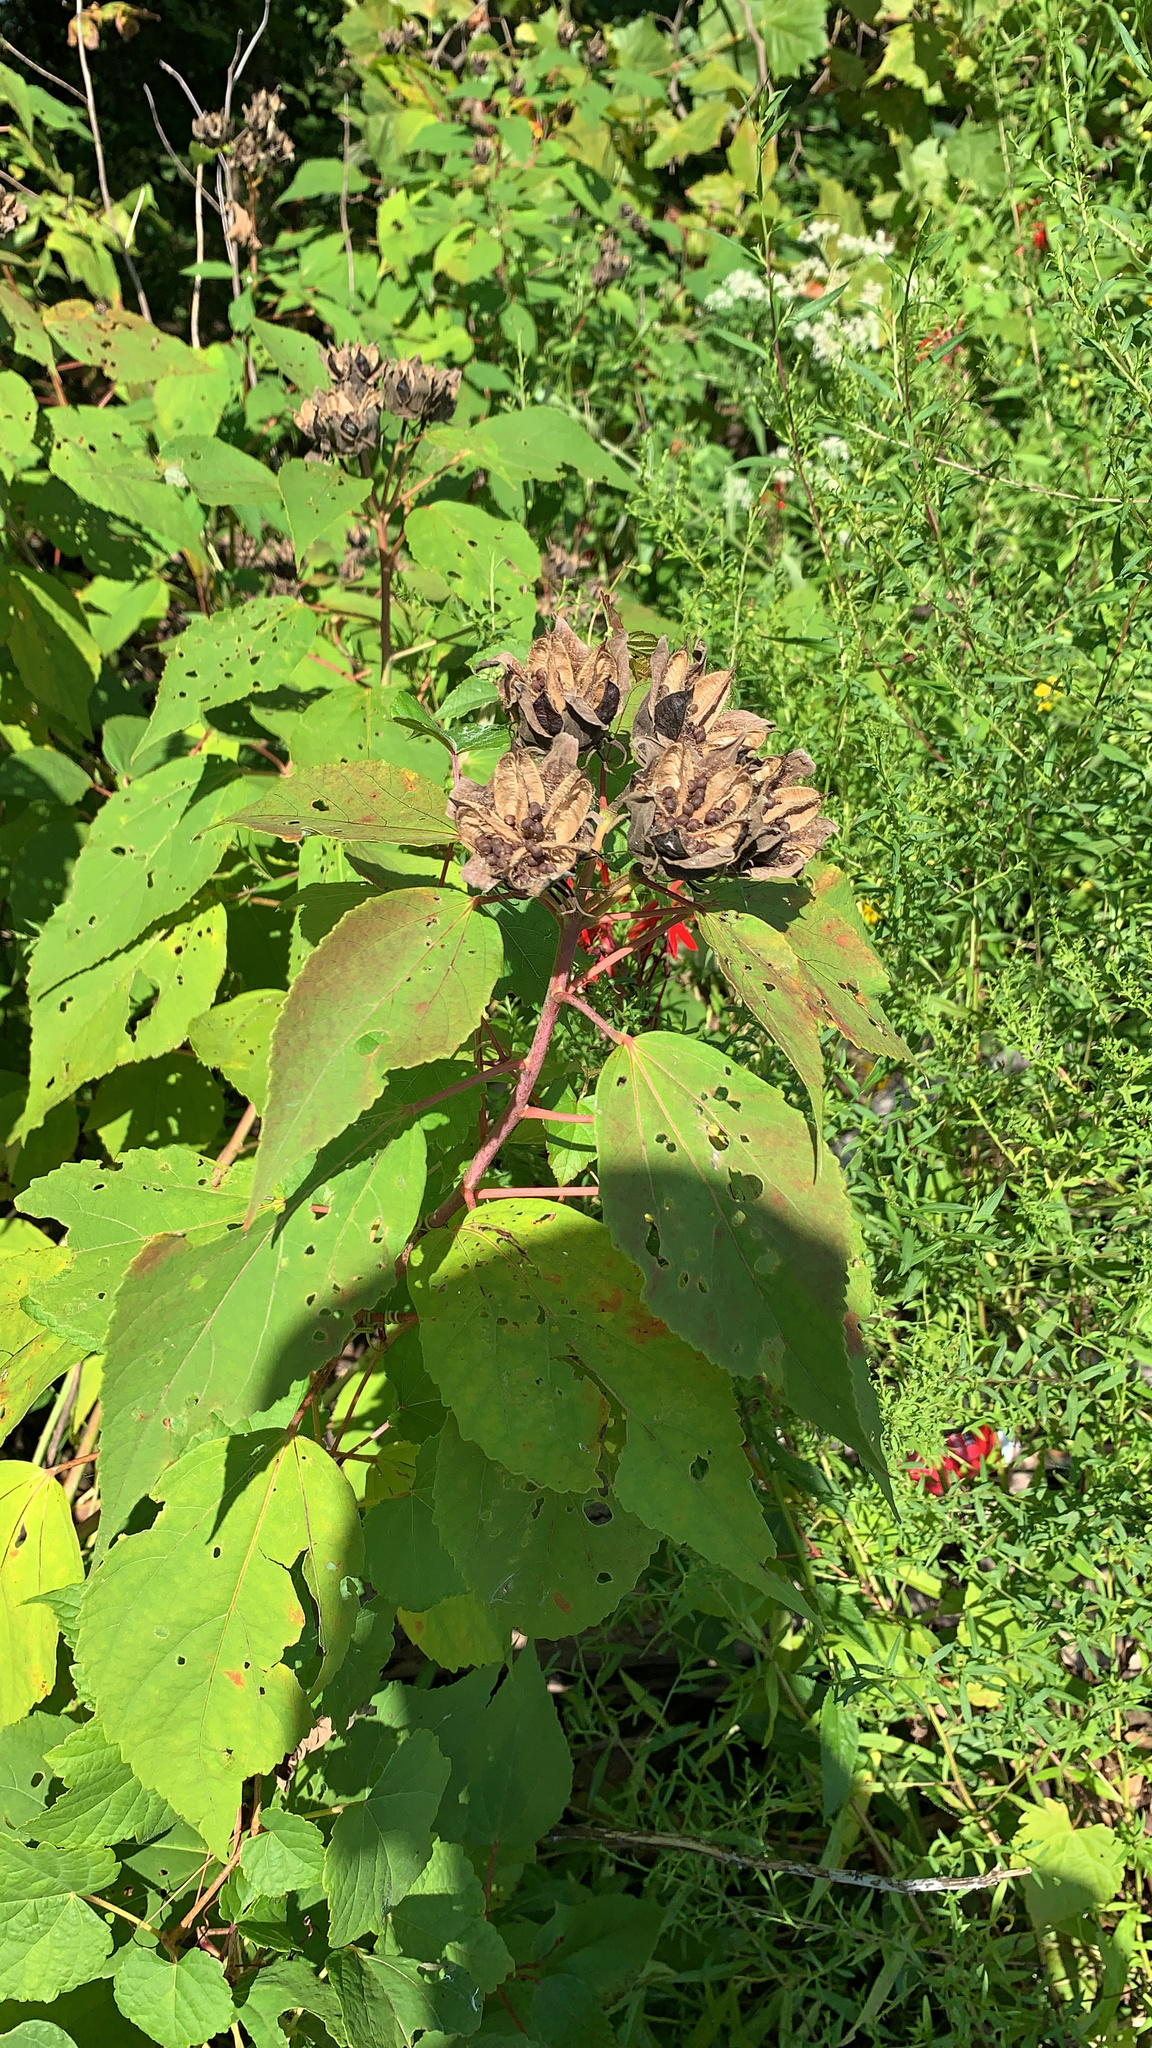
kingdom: Plantae
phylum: Tracheophyta
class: Magnoliopsida
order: Malvales
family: Malvaceae
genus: Hibiscus
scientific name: Hibiscus moscheutos
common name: Common rose-mallow
